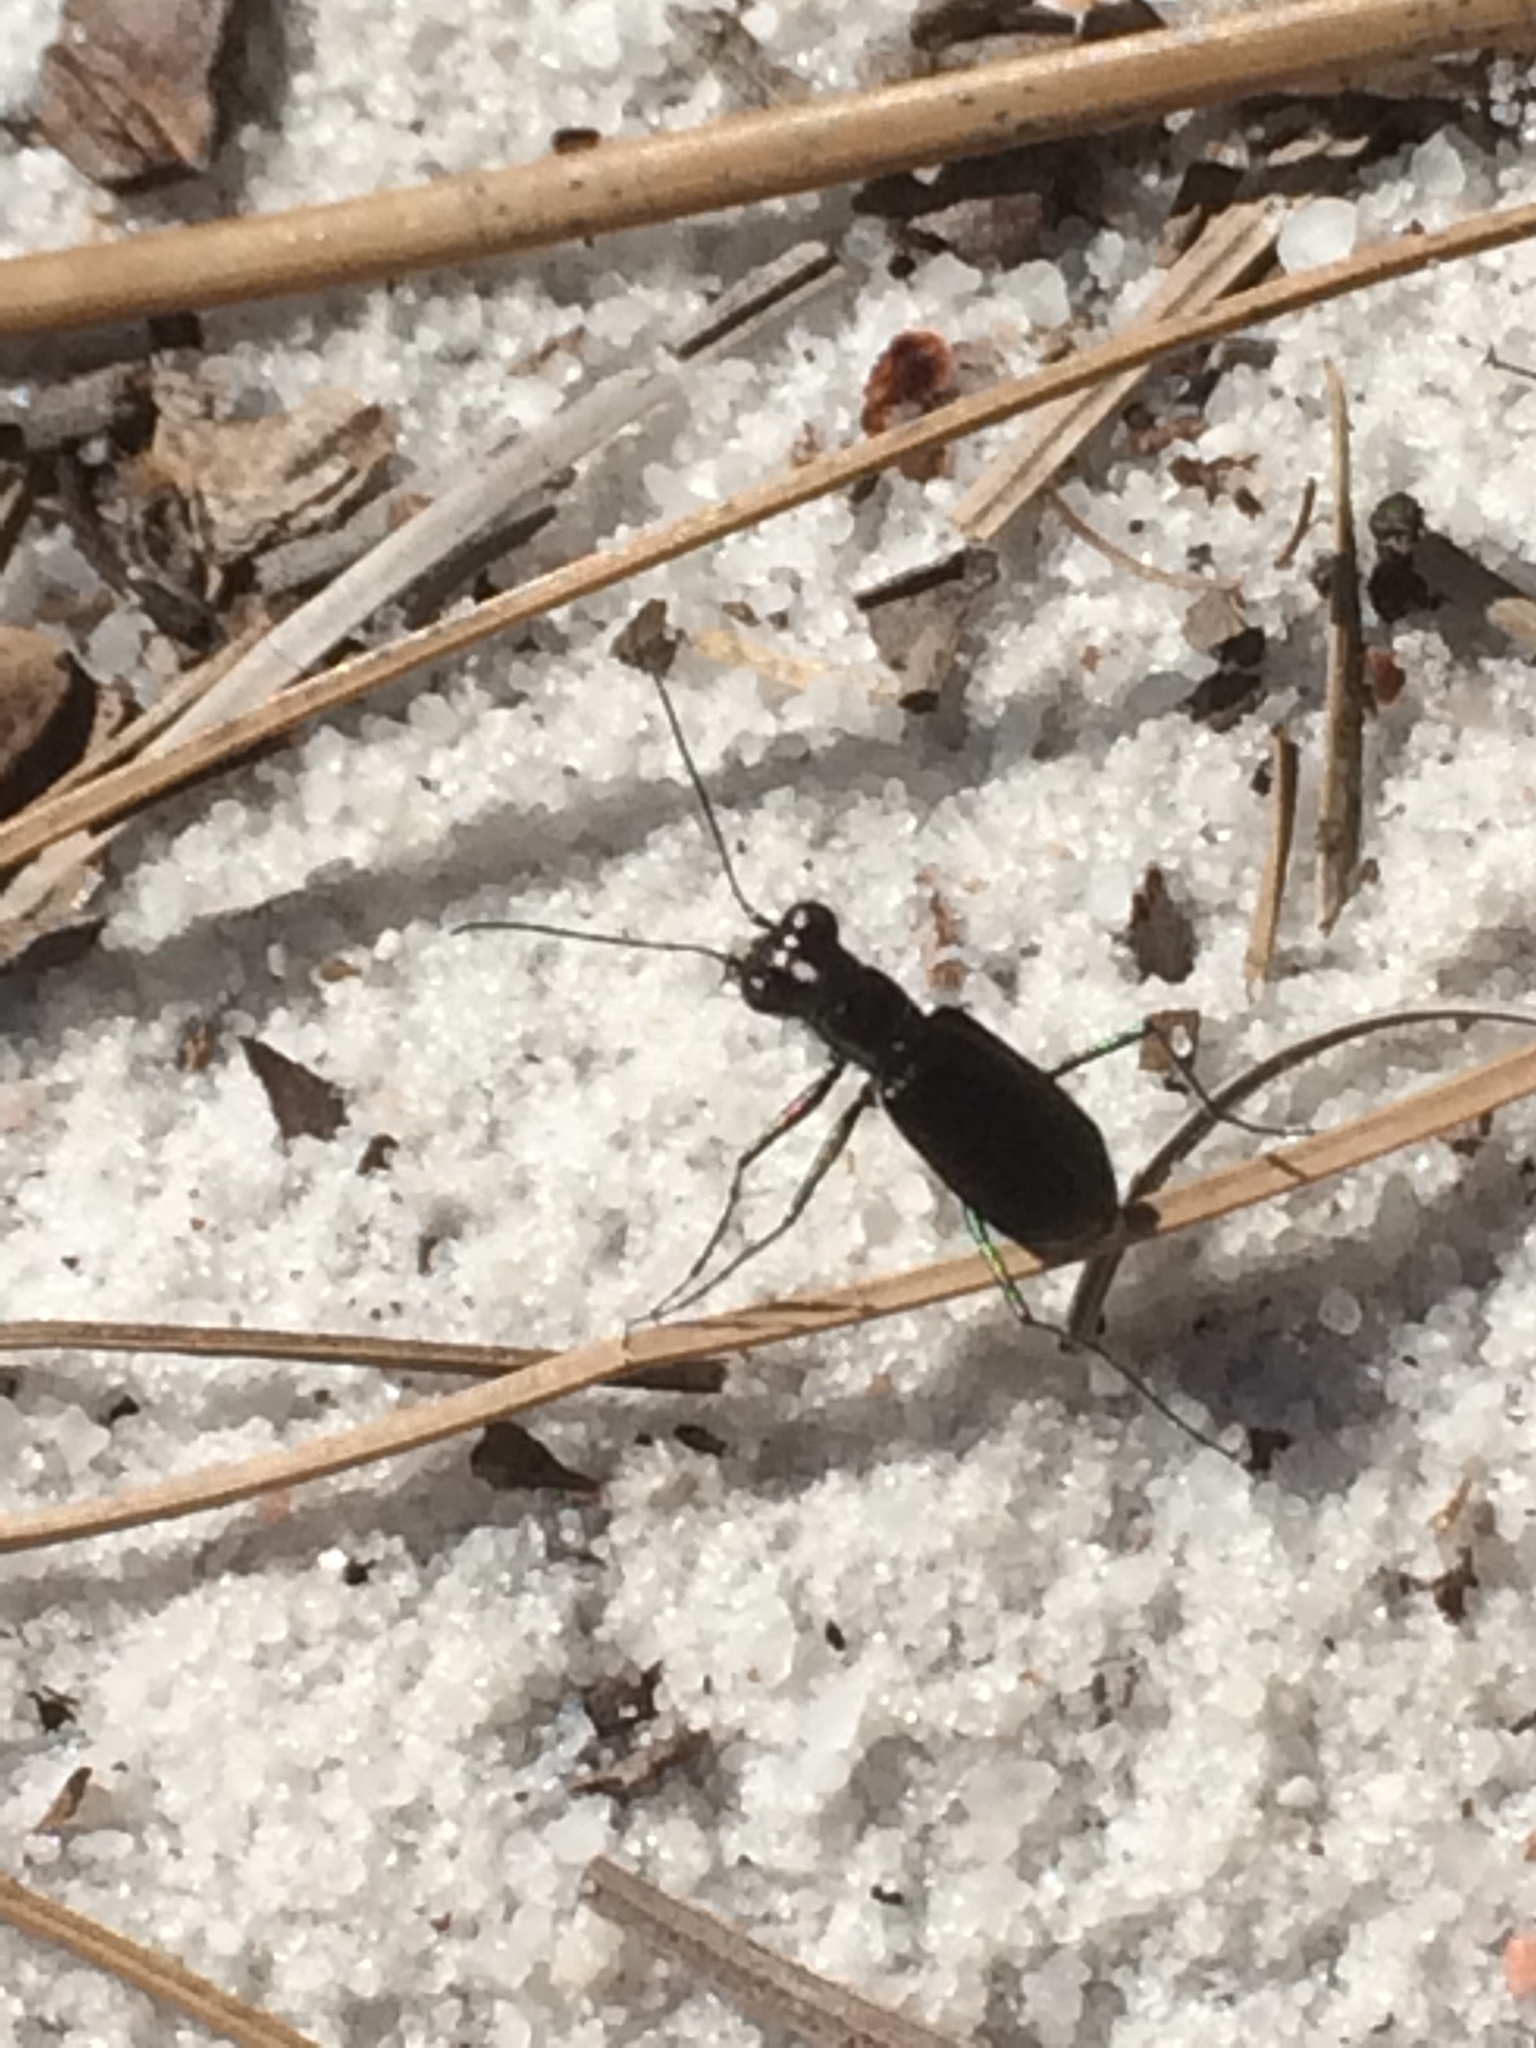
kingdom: Animalia
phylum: Arthropoda
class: Insecta
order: Coleoptera
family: Carabidae
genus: Cicindela
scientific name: Cicindela abdominalis
